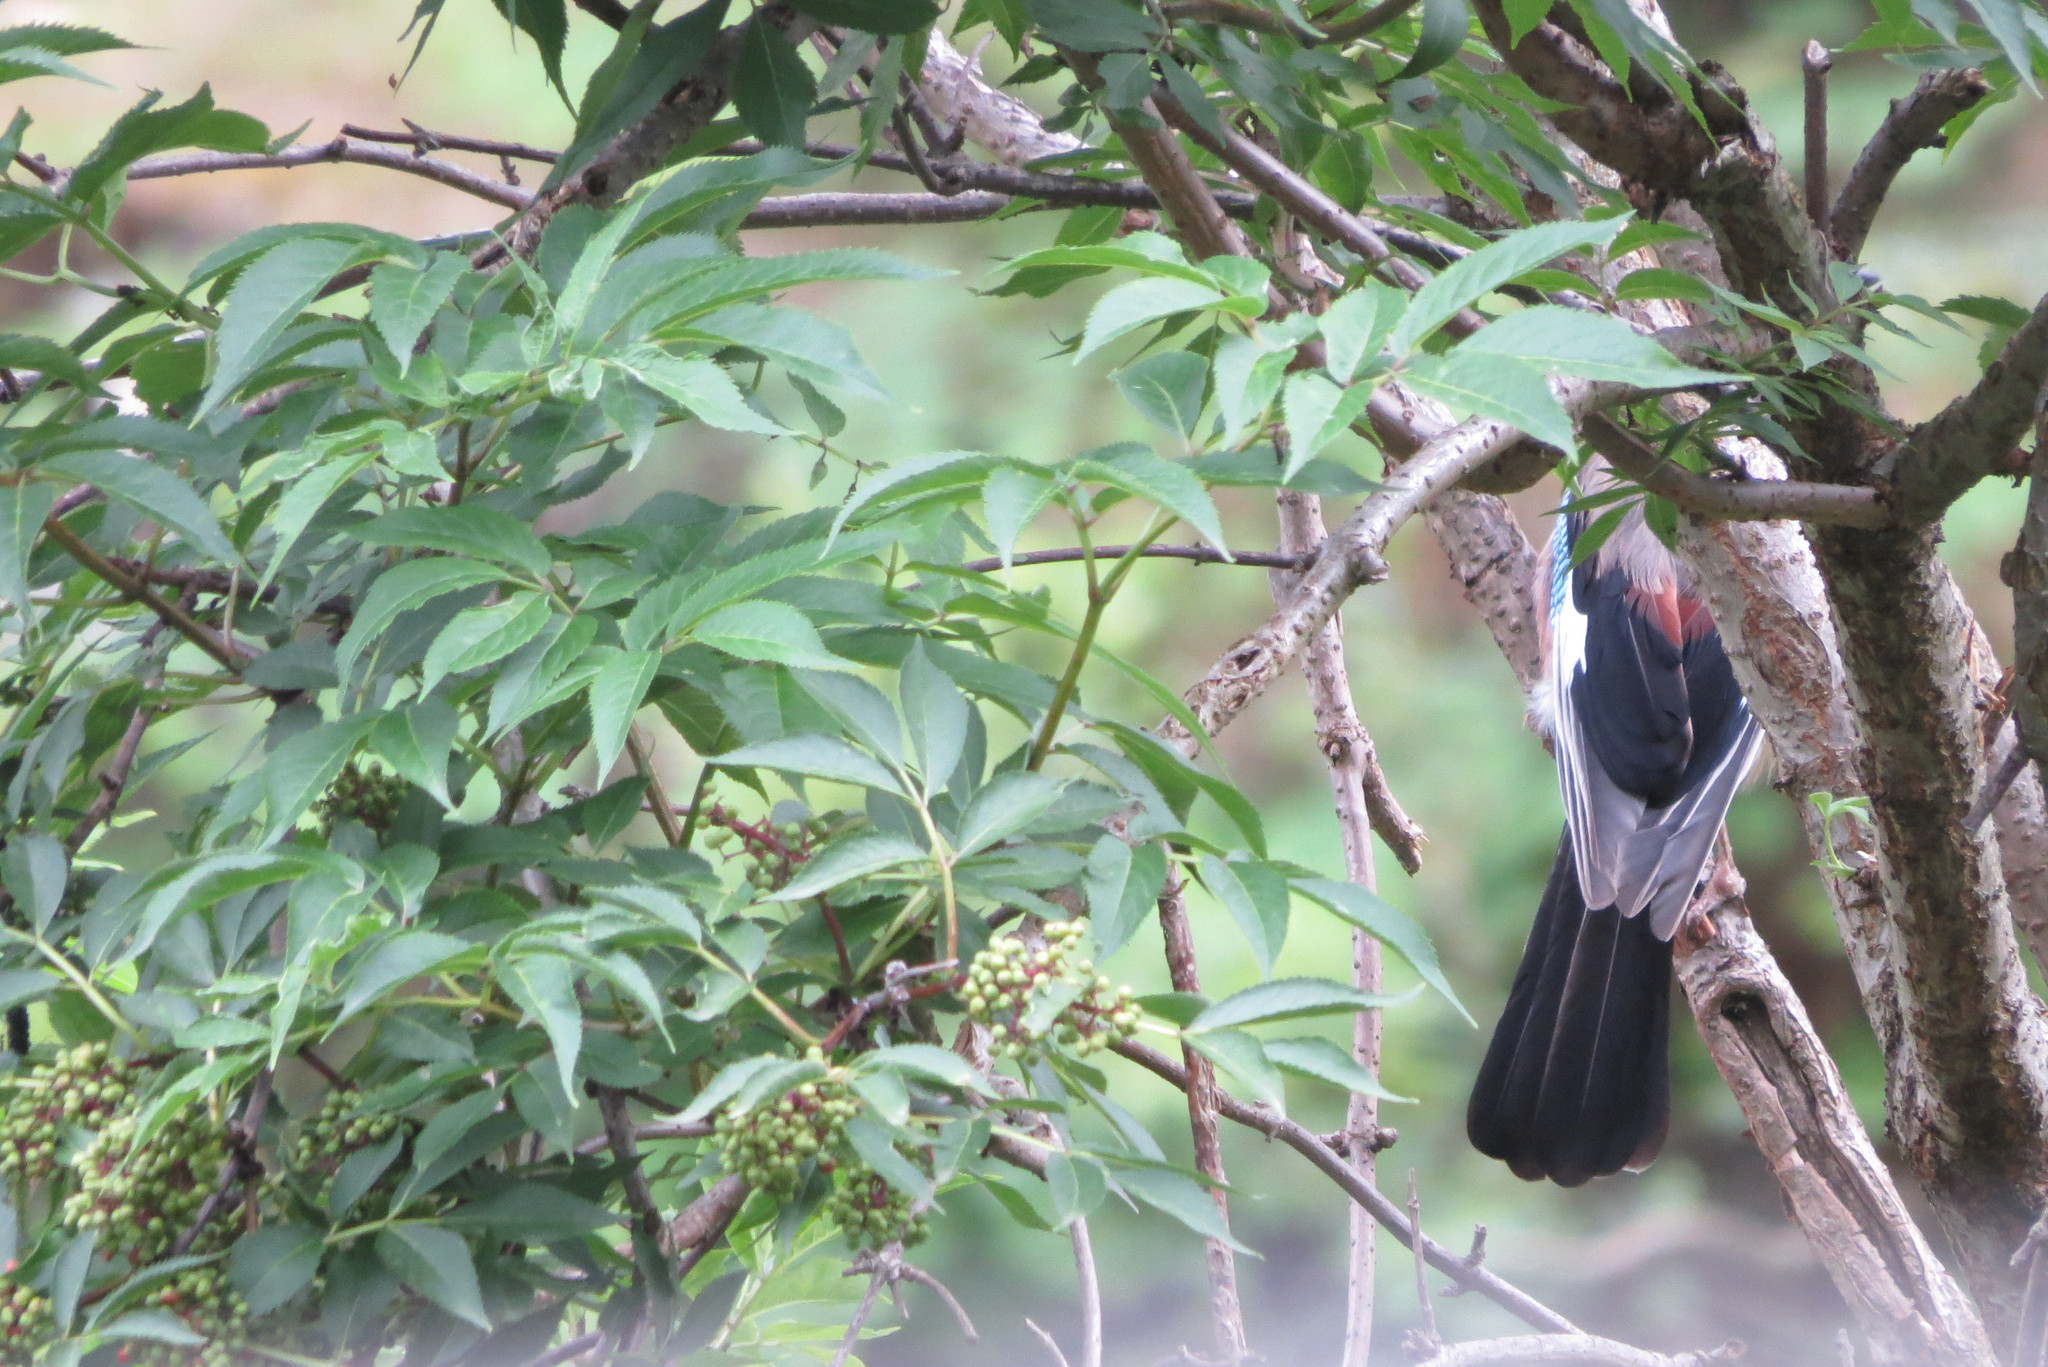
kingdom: Animalia
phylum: Chordata
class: Aves
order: Passeriformes
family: Corvidae
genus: Garrulus
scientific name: Garrulus glandarius
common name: Eurasian jay
